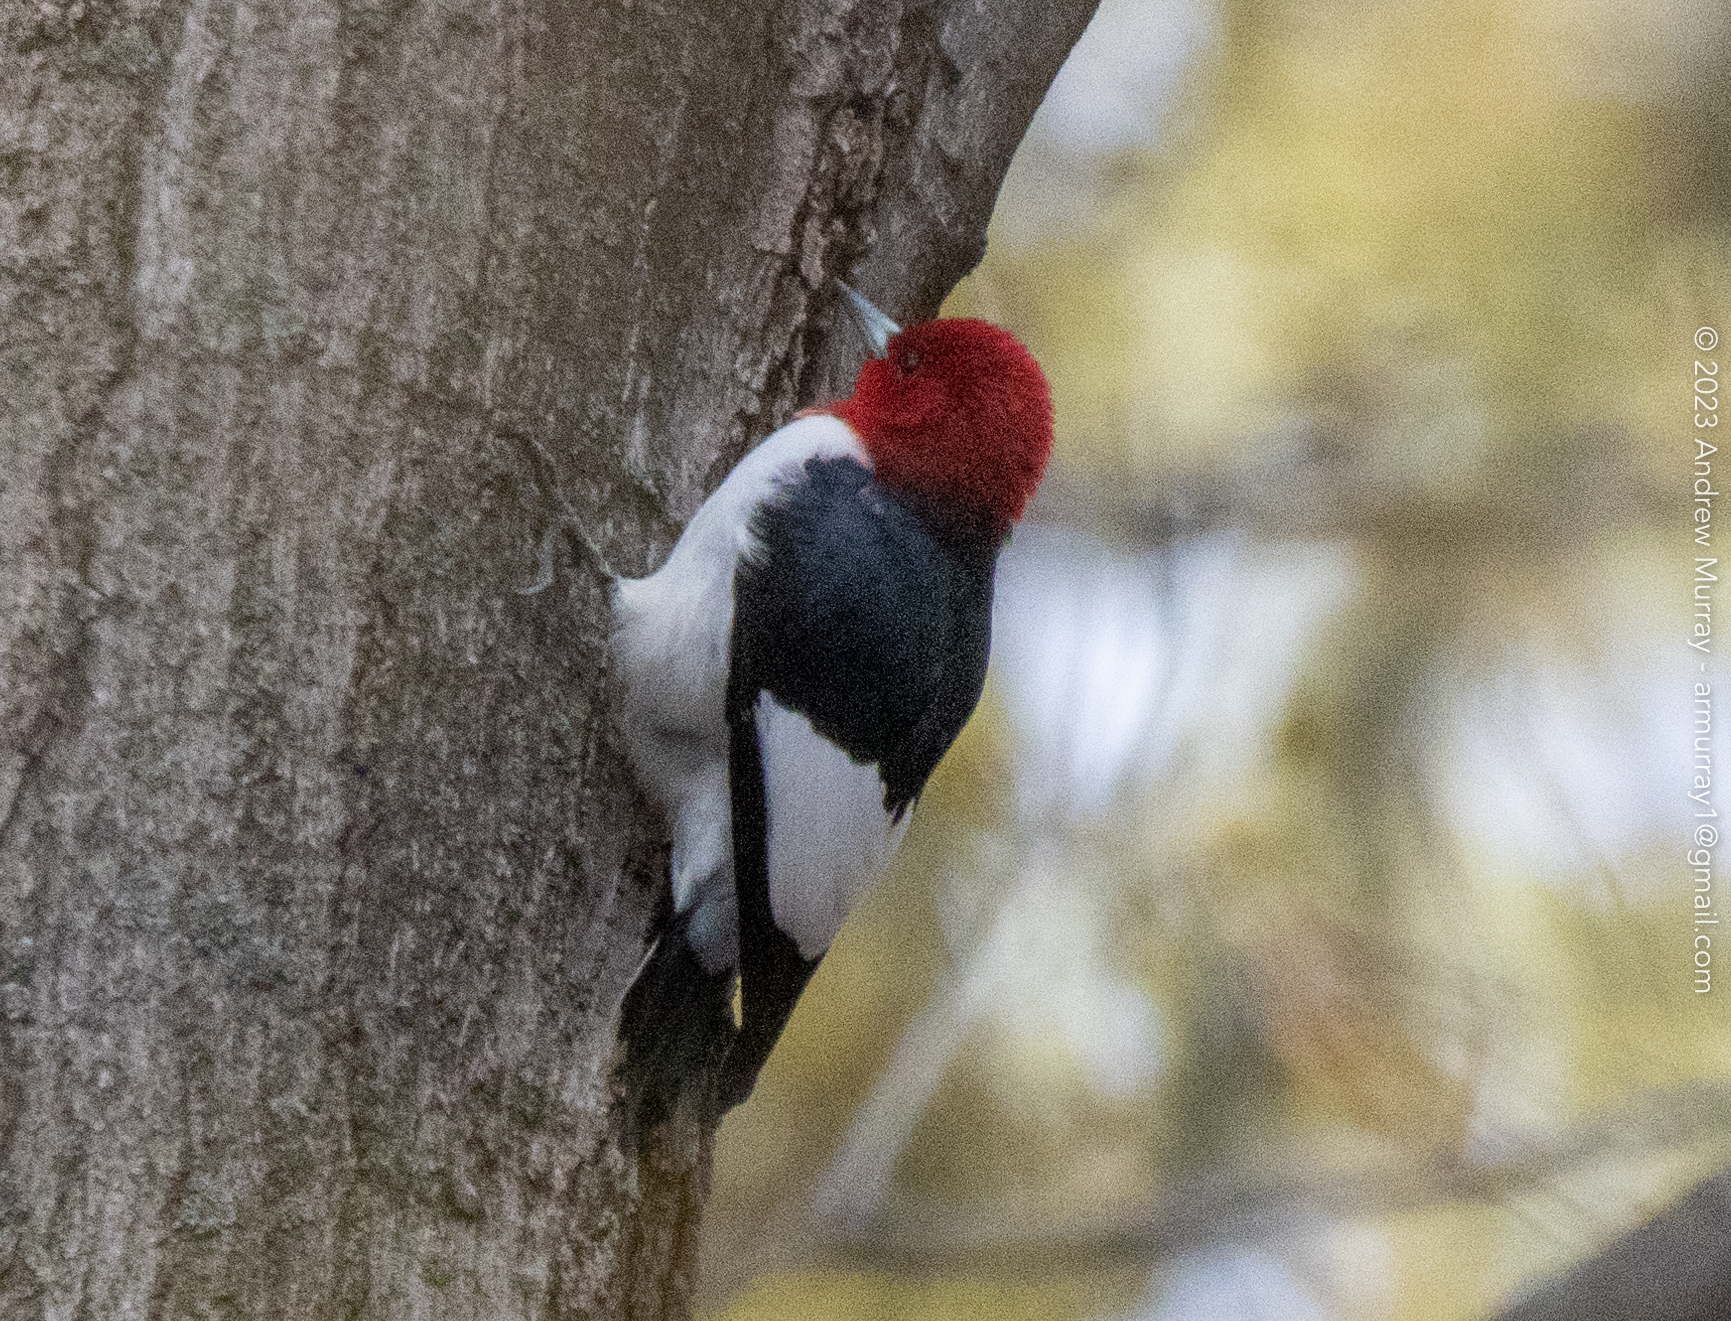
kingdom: Animalia
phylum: Chordata
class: Aves
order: Piciformes
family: Picidae
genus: Melanerpes
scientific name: Melanerpes erythrocephalus
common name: Red-headed woodpecker
